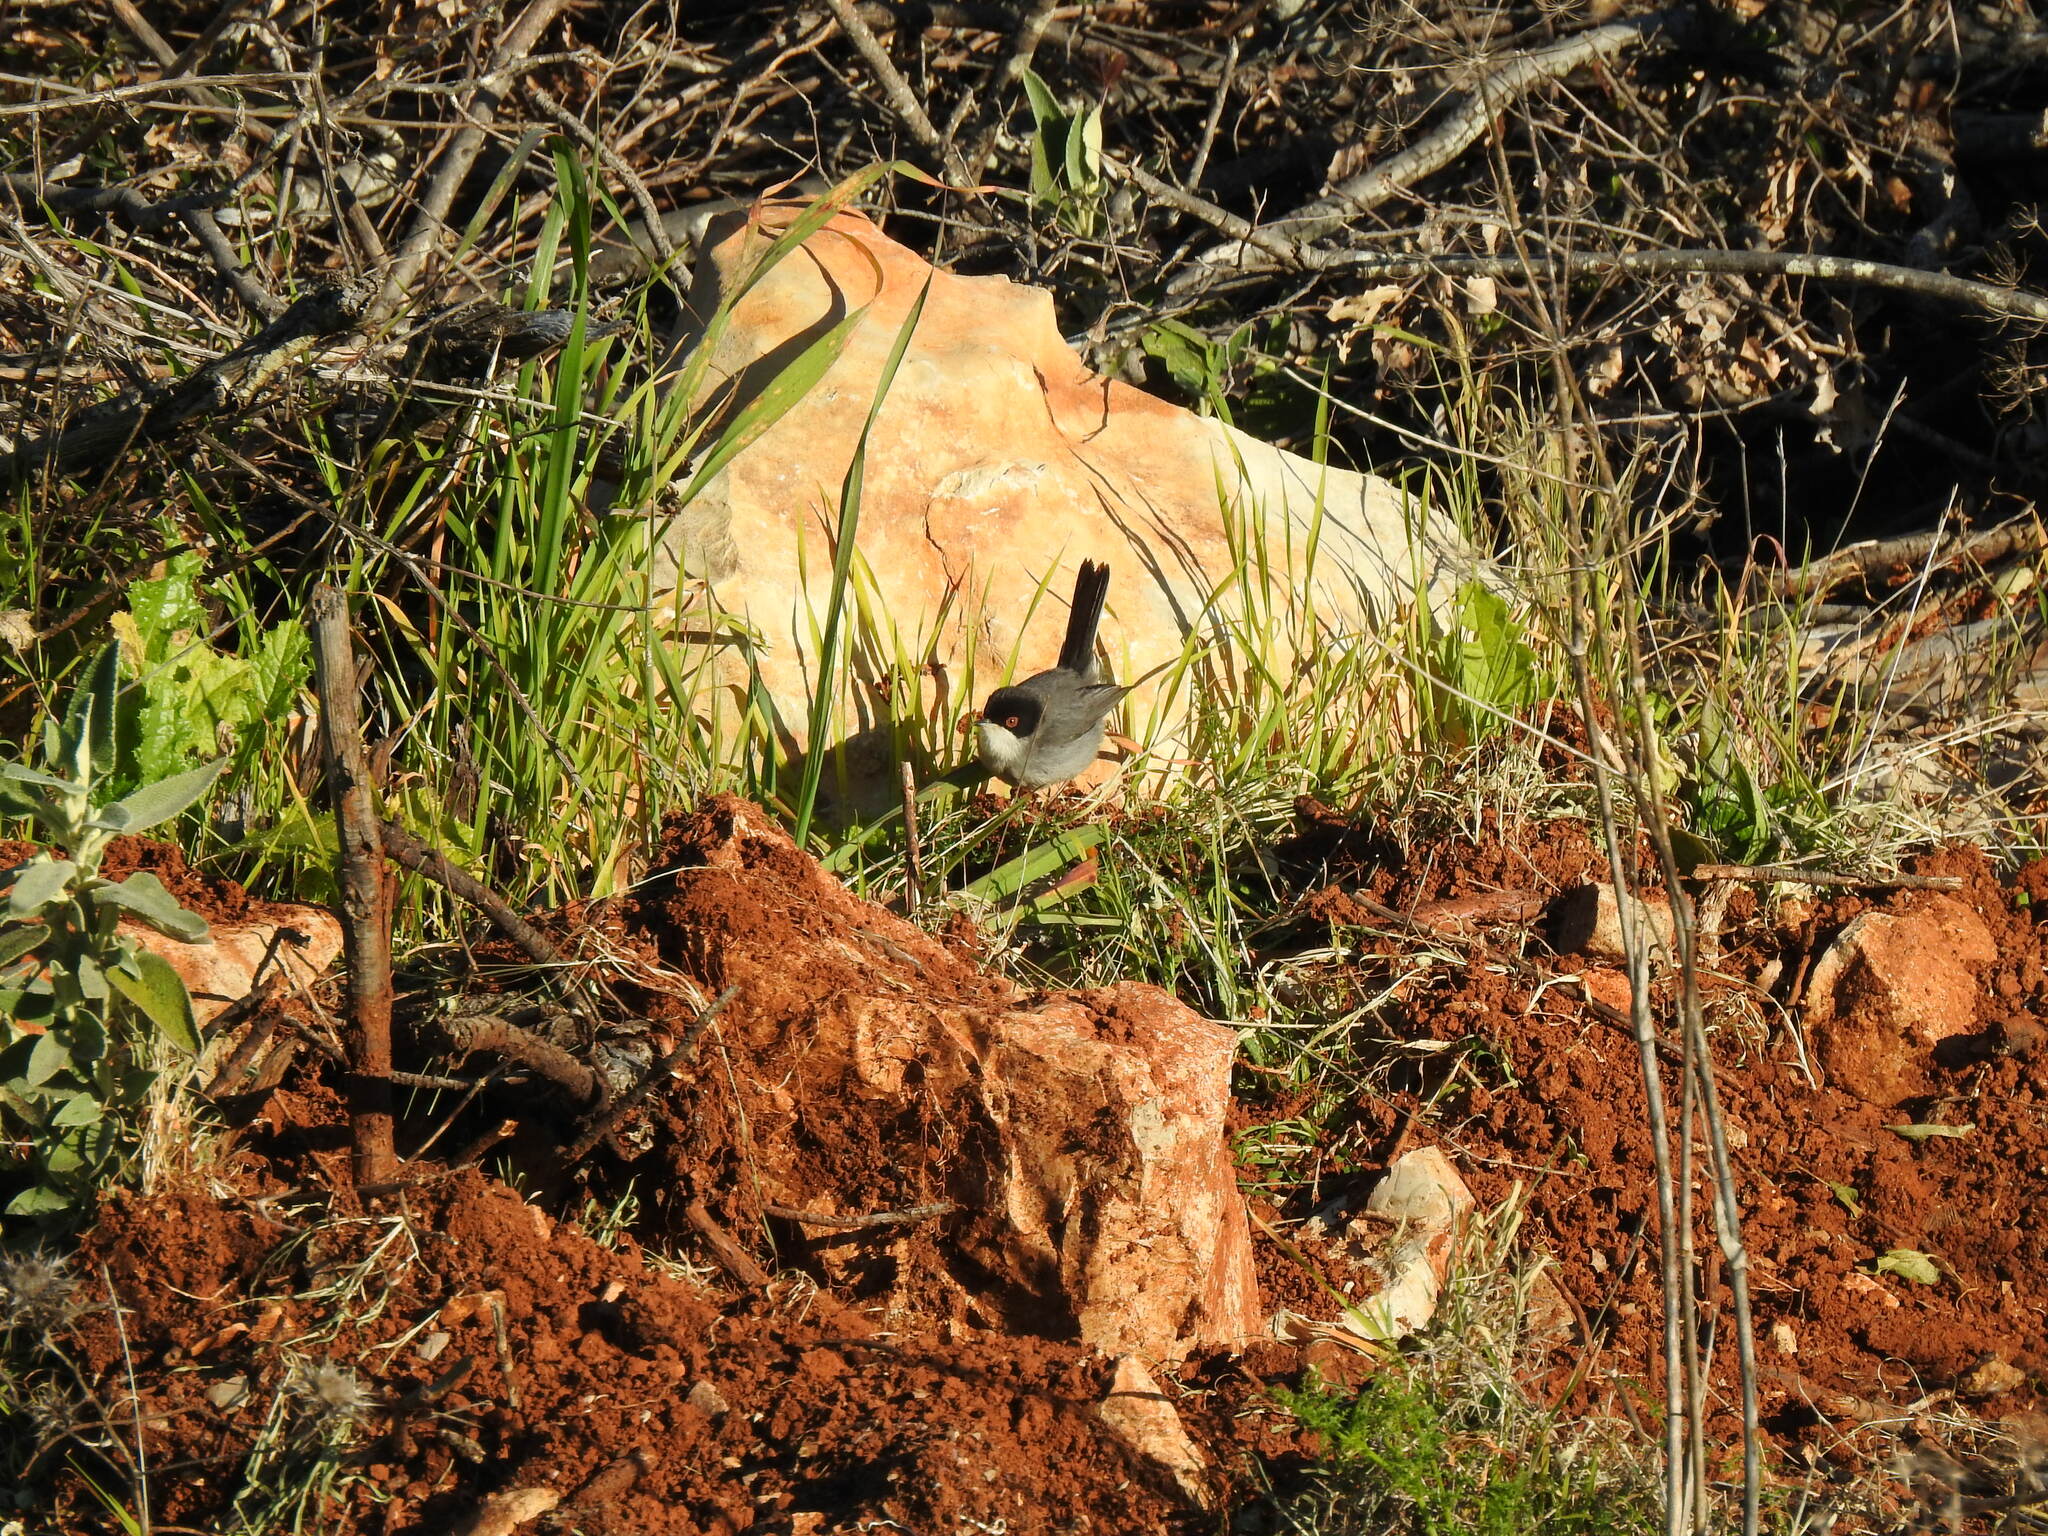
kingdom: Animalia
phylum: Chordata
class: Aves
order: Passeriformes
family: Sylviidae
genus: Curruca
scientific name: Curruca melanocephala
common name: Sardinian warbler
